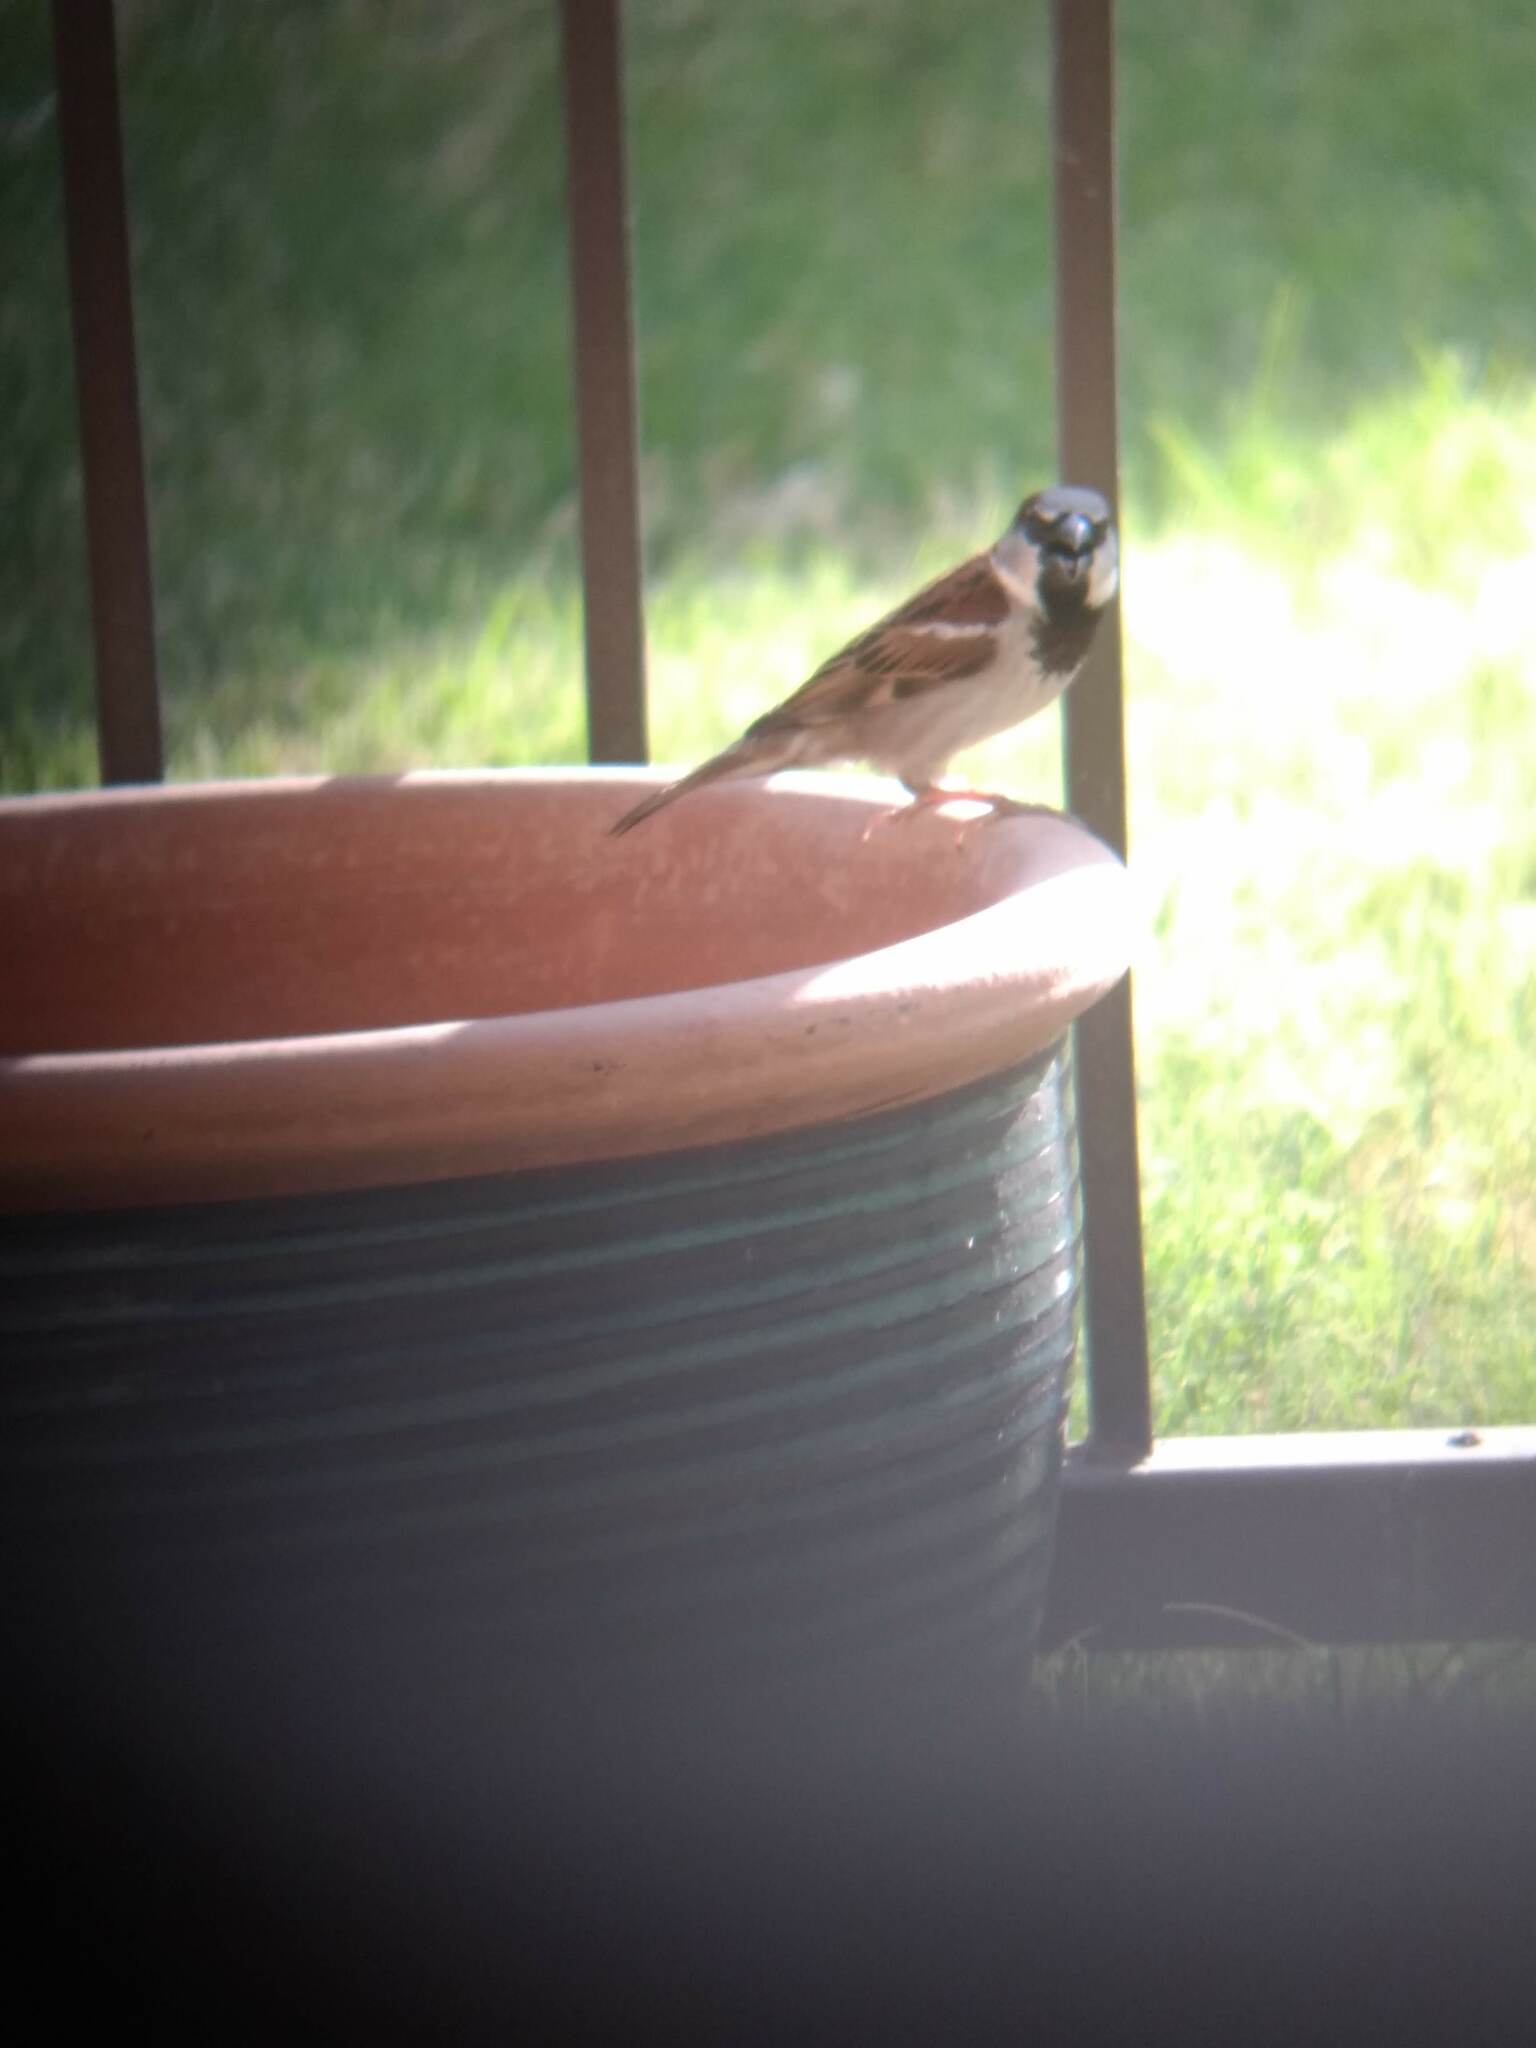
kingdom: Animalia
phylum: Chordata
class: Aves
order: Passeriformes
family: Passeridae
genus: Passer
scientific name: Passer domesticus
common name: House sparrow
